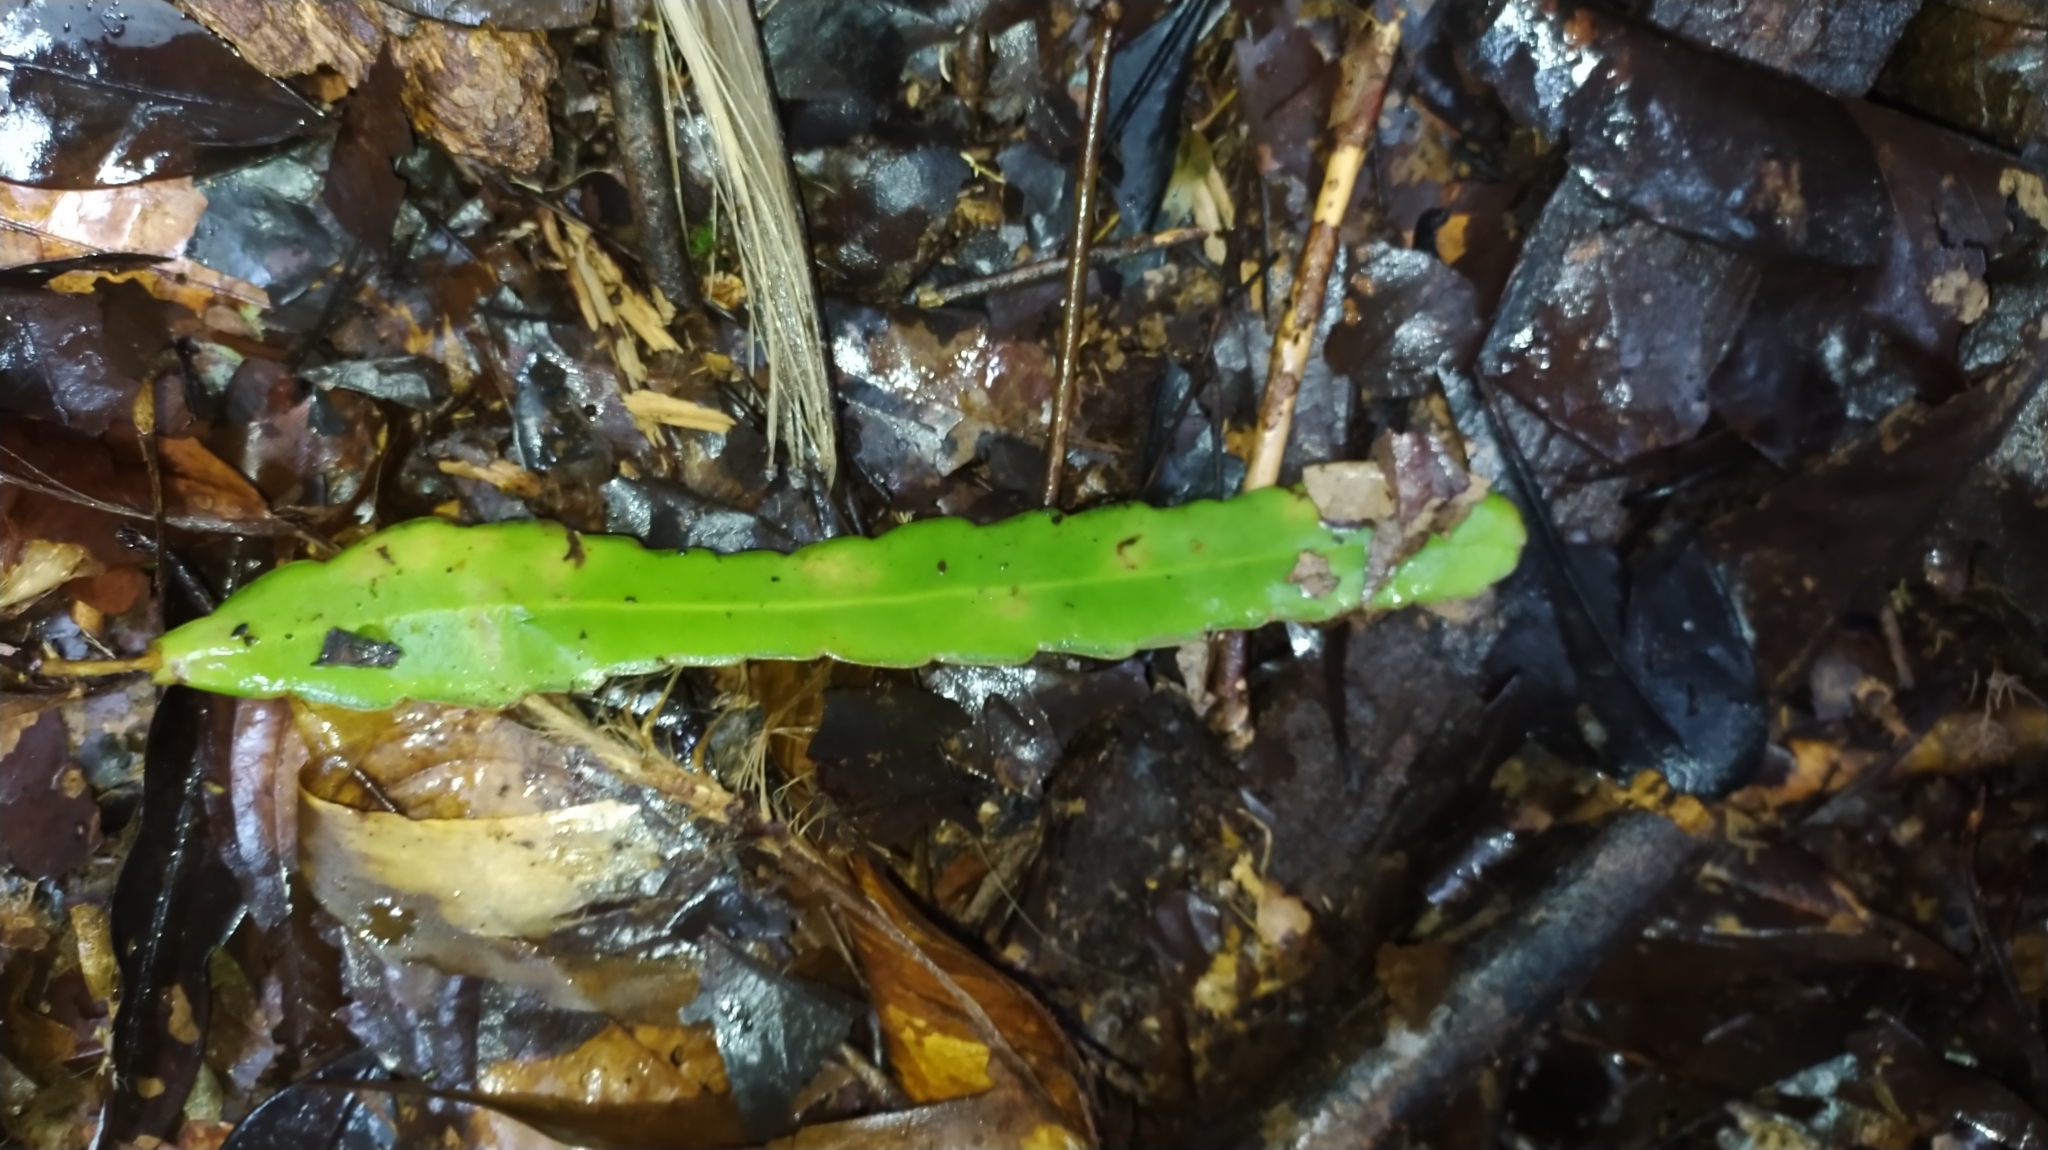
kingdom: Plantae
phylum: Tracheophyta
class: Magnoliopsida
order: Caryophyllales
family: Cactaceae
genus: Epiphyllum
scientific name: Epiphyllum phyllanthus
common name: Climbing cactus
